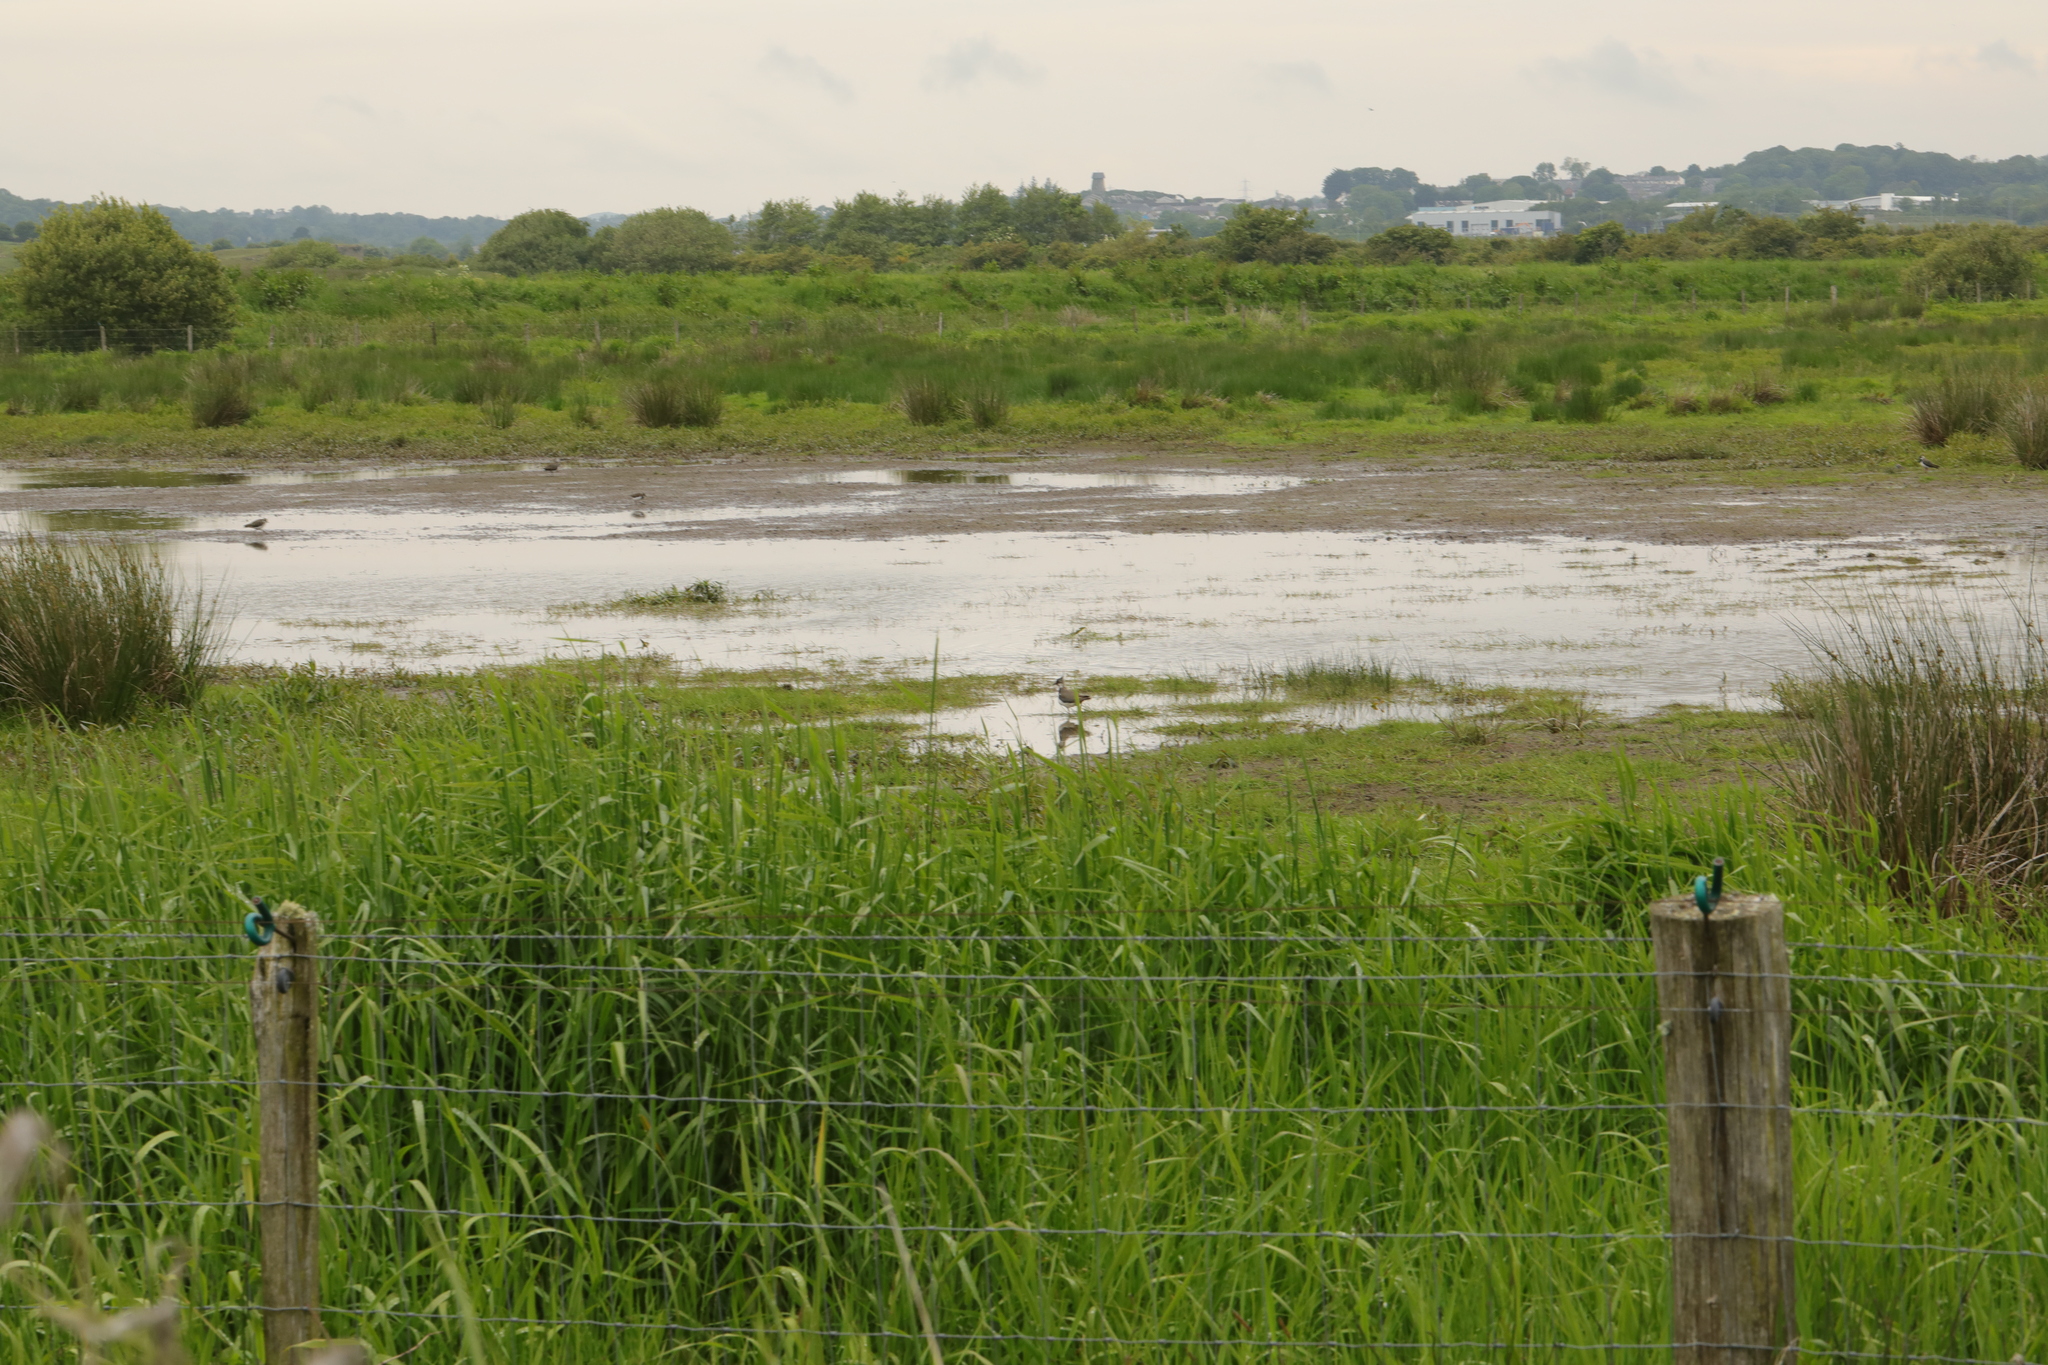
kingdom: Animalia
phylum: Chordata
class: Aves
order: Charadriiformes
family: Charadriidae
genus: Vanellus
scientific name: Vanellus vanellus
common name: Northern lapwing
